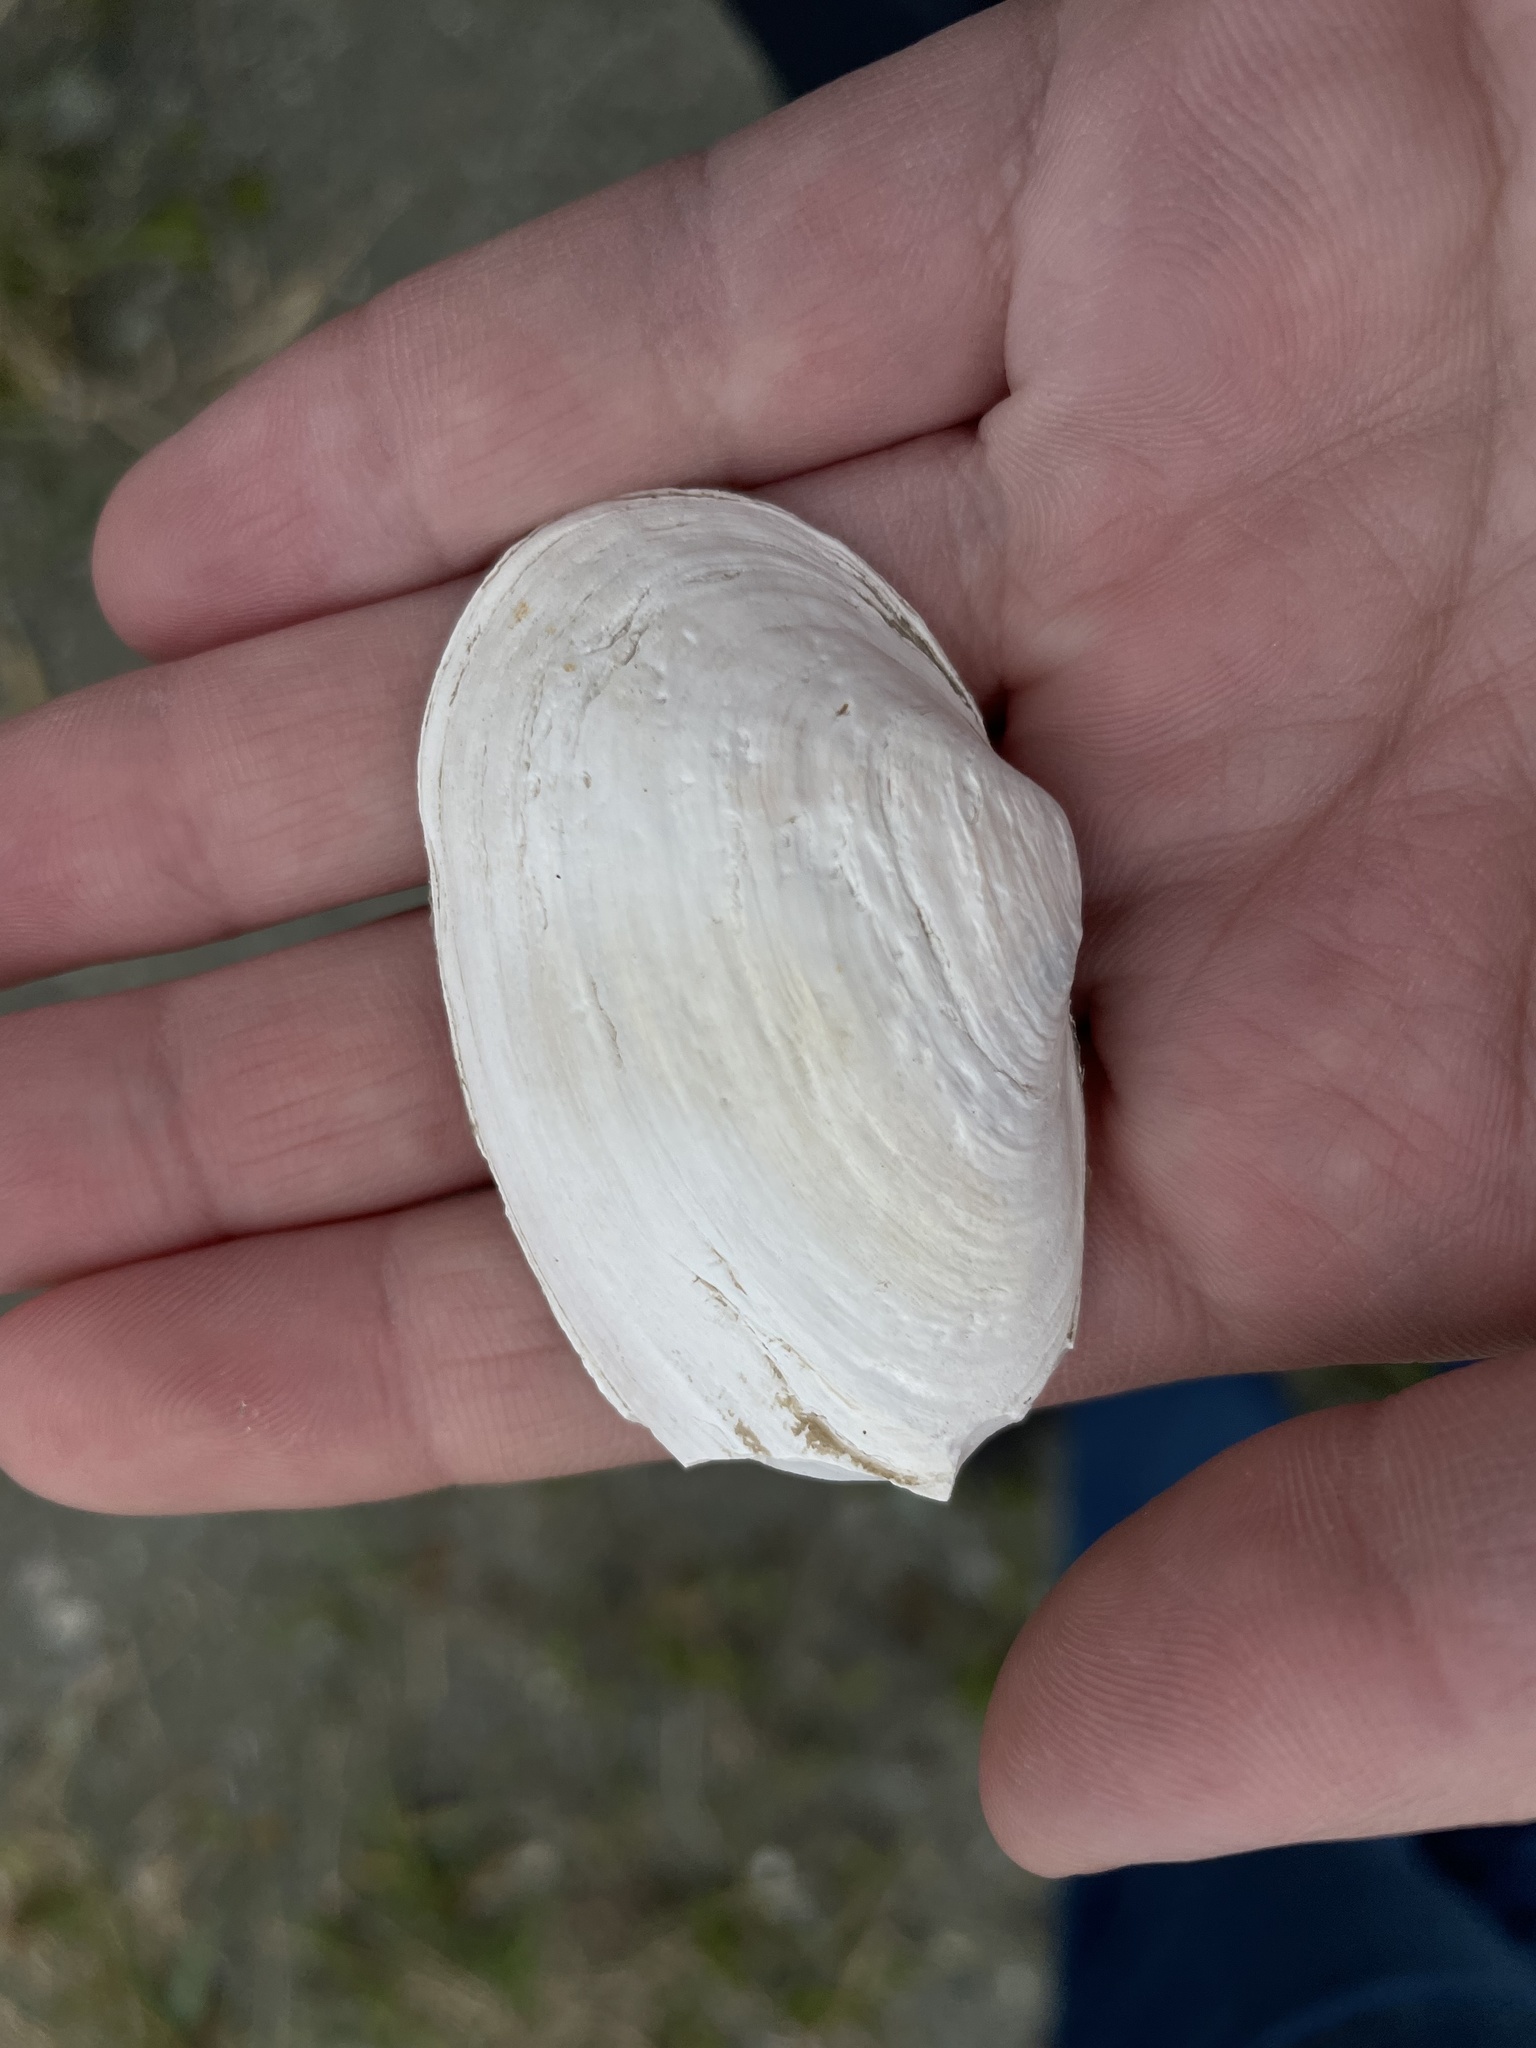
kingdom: Animalia
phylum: Mollusca
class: Bivalvia
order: Myida
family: Myidae
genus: Mya
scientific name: Mya arenaria
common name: Soft-shelled clam
